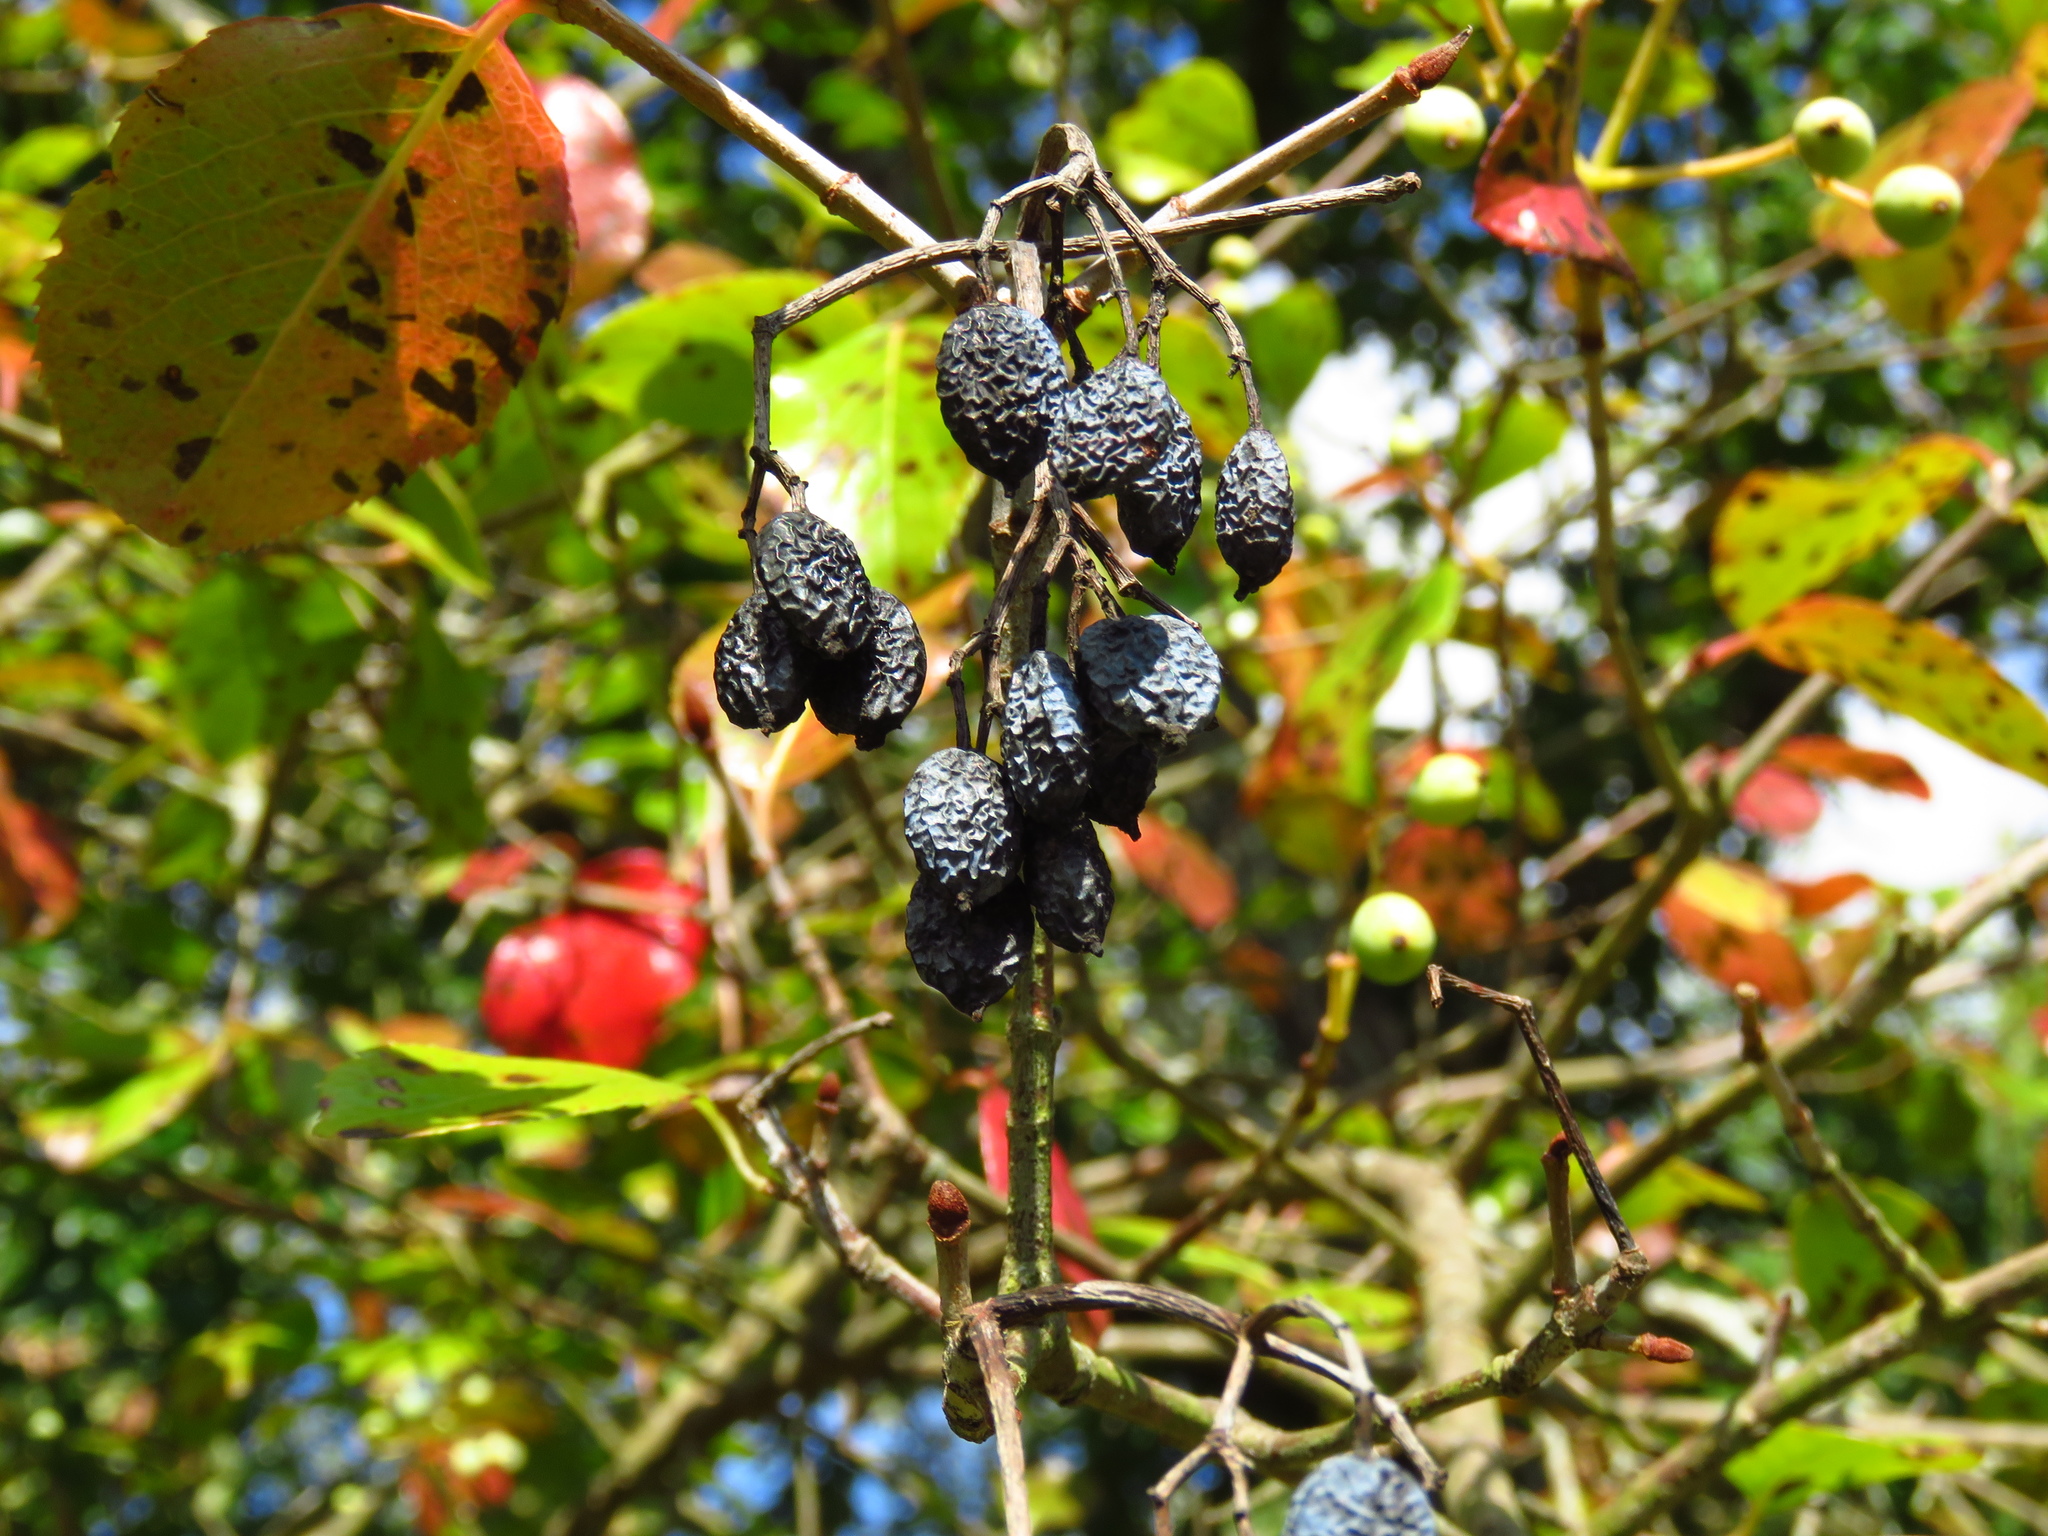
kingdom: Plantae
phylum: Tracheophyta
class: Magnoliopsida
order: Dipsacales
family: Viburnaceae
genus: Viburnum
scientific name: Viburnum rufidulum
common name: Blue haw
